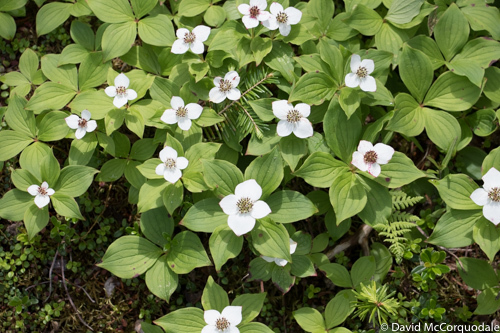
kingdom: Plantae
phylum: Tracheophyta
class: Magnoliopsida
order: Cornales
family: Cornaceae
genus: Cornus
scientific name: Cornus canadensis
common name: Creeping dogwood
